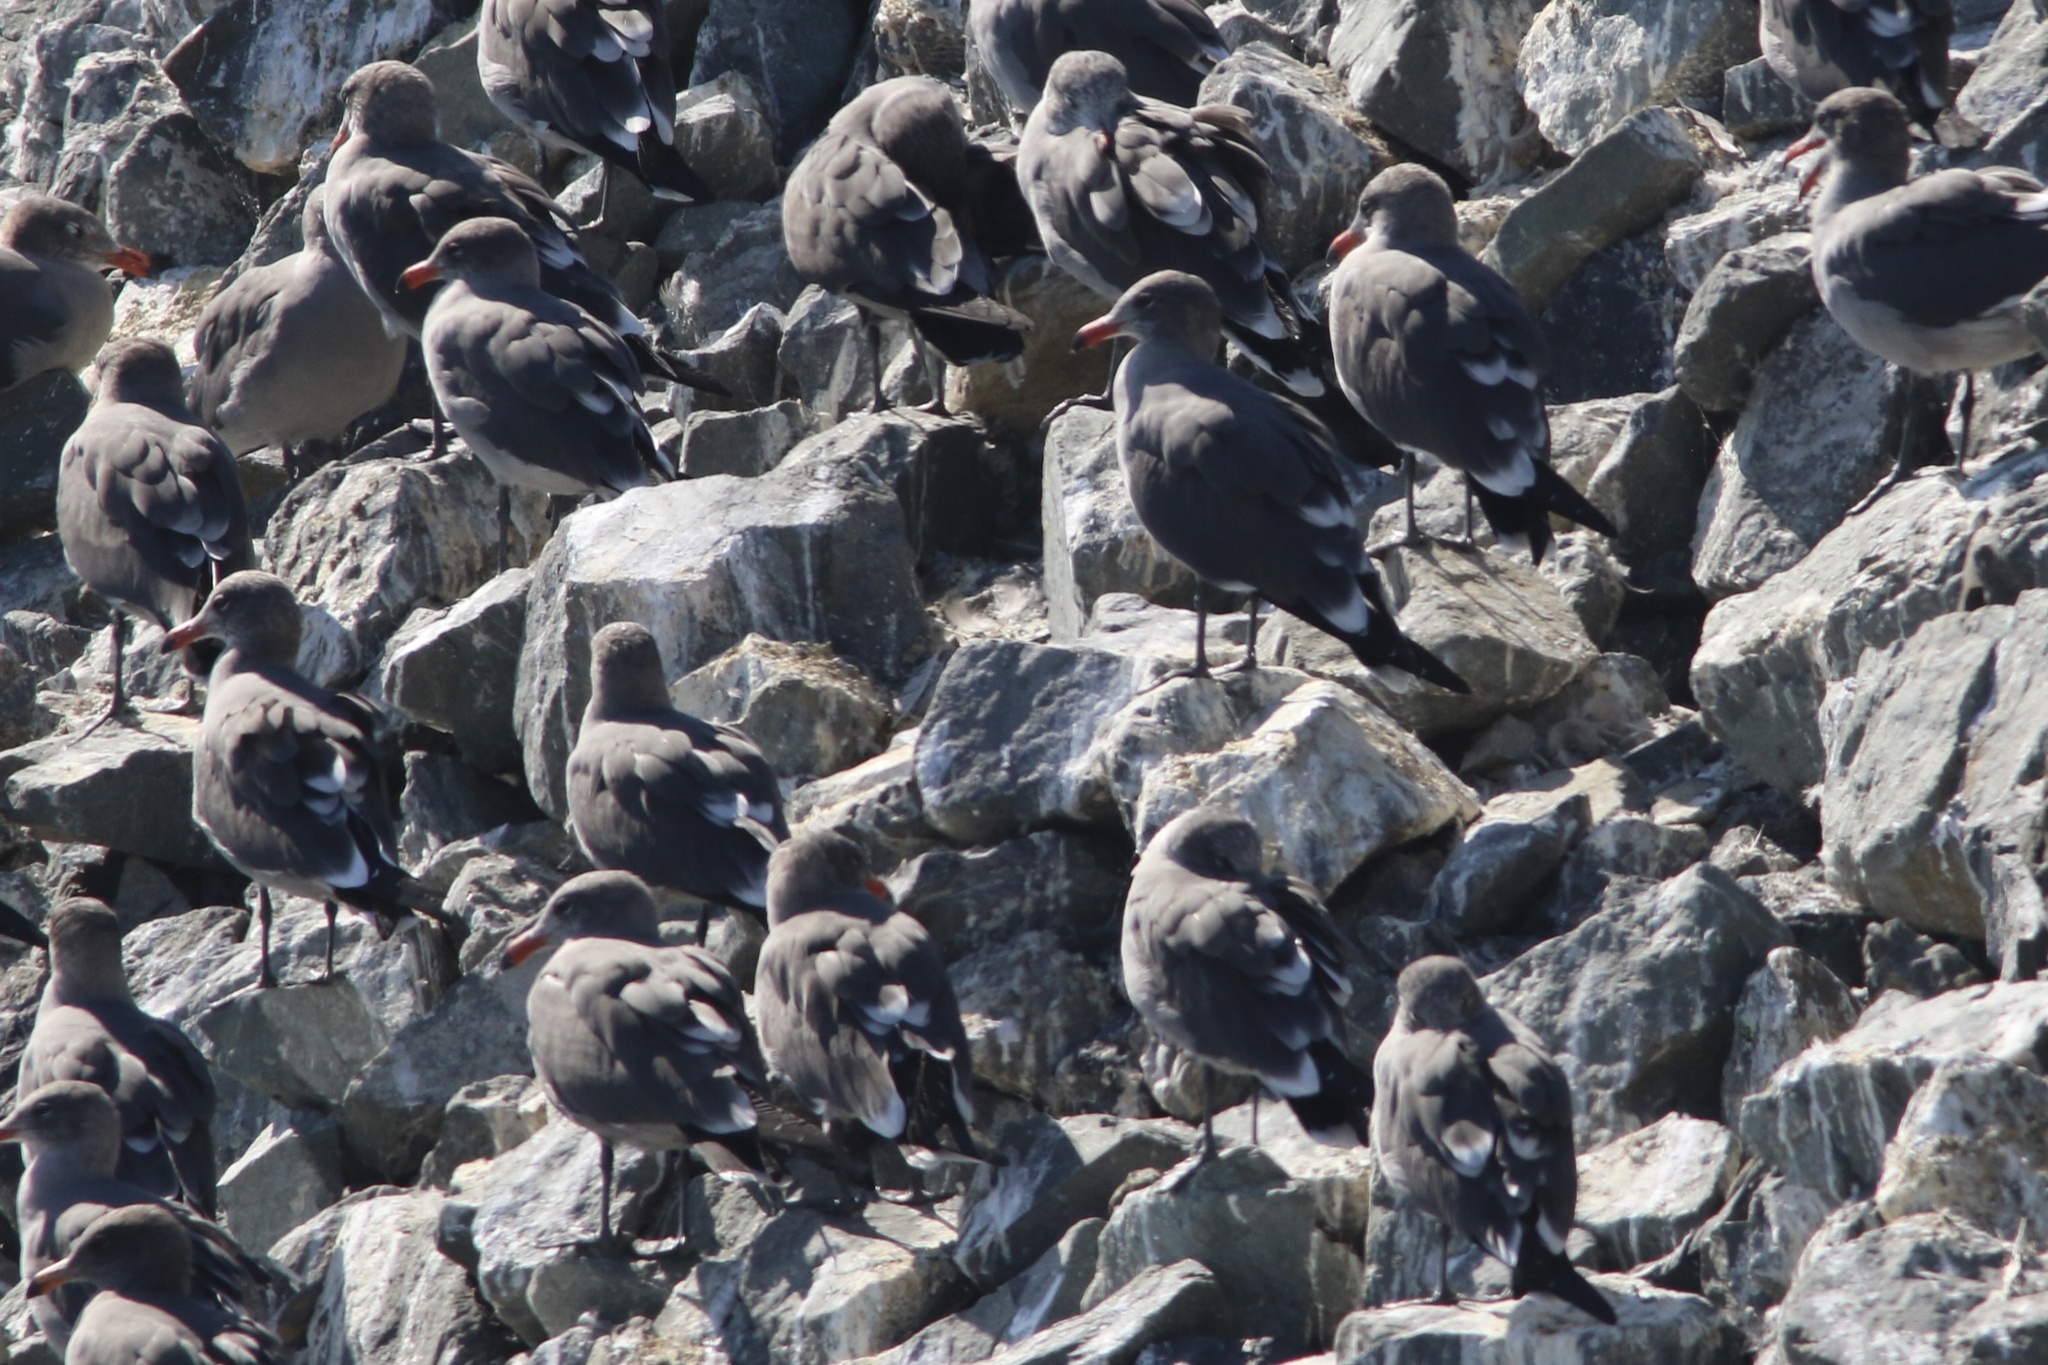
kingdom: Animalia
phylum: Chordata
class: Aves
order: Charadriiformes
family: Laridae
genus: Larus
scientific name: Larus heermanni
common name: Heermann's gull
